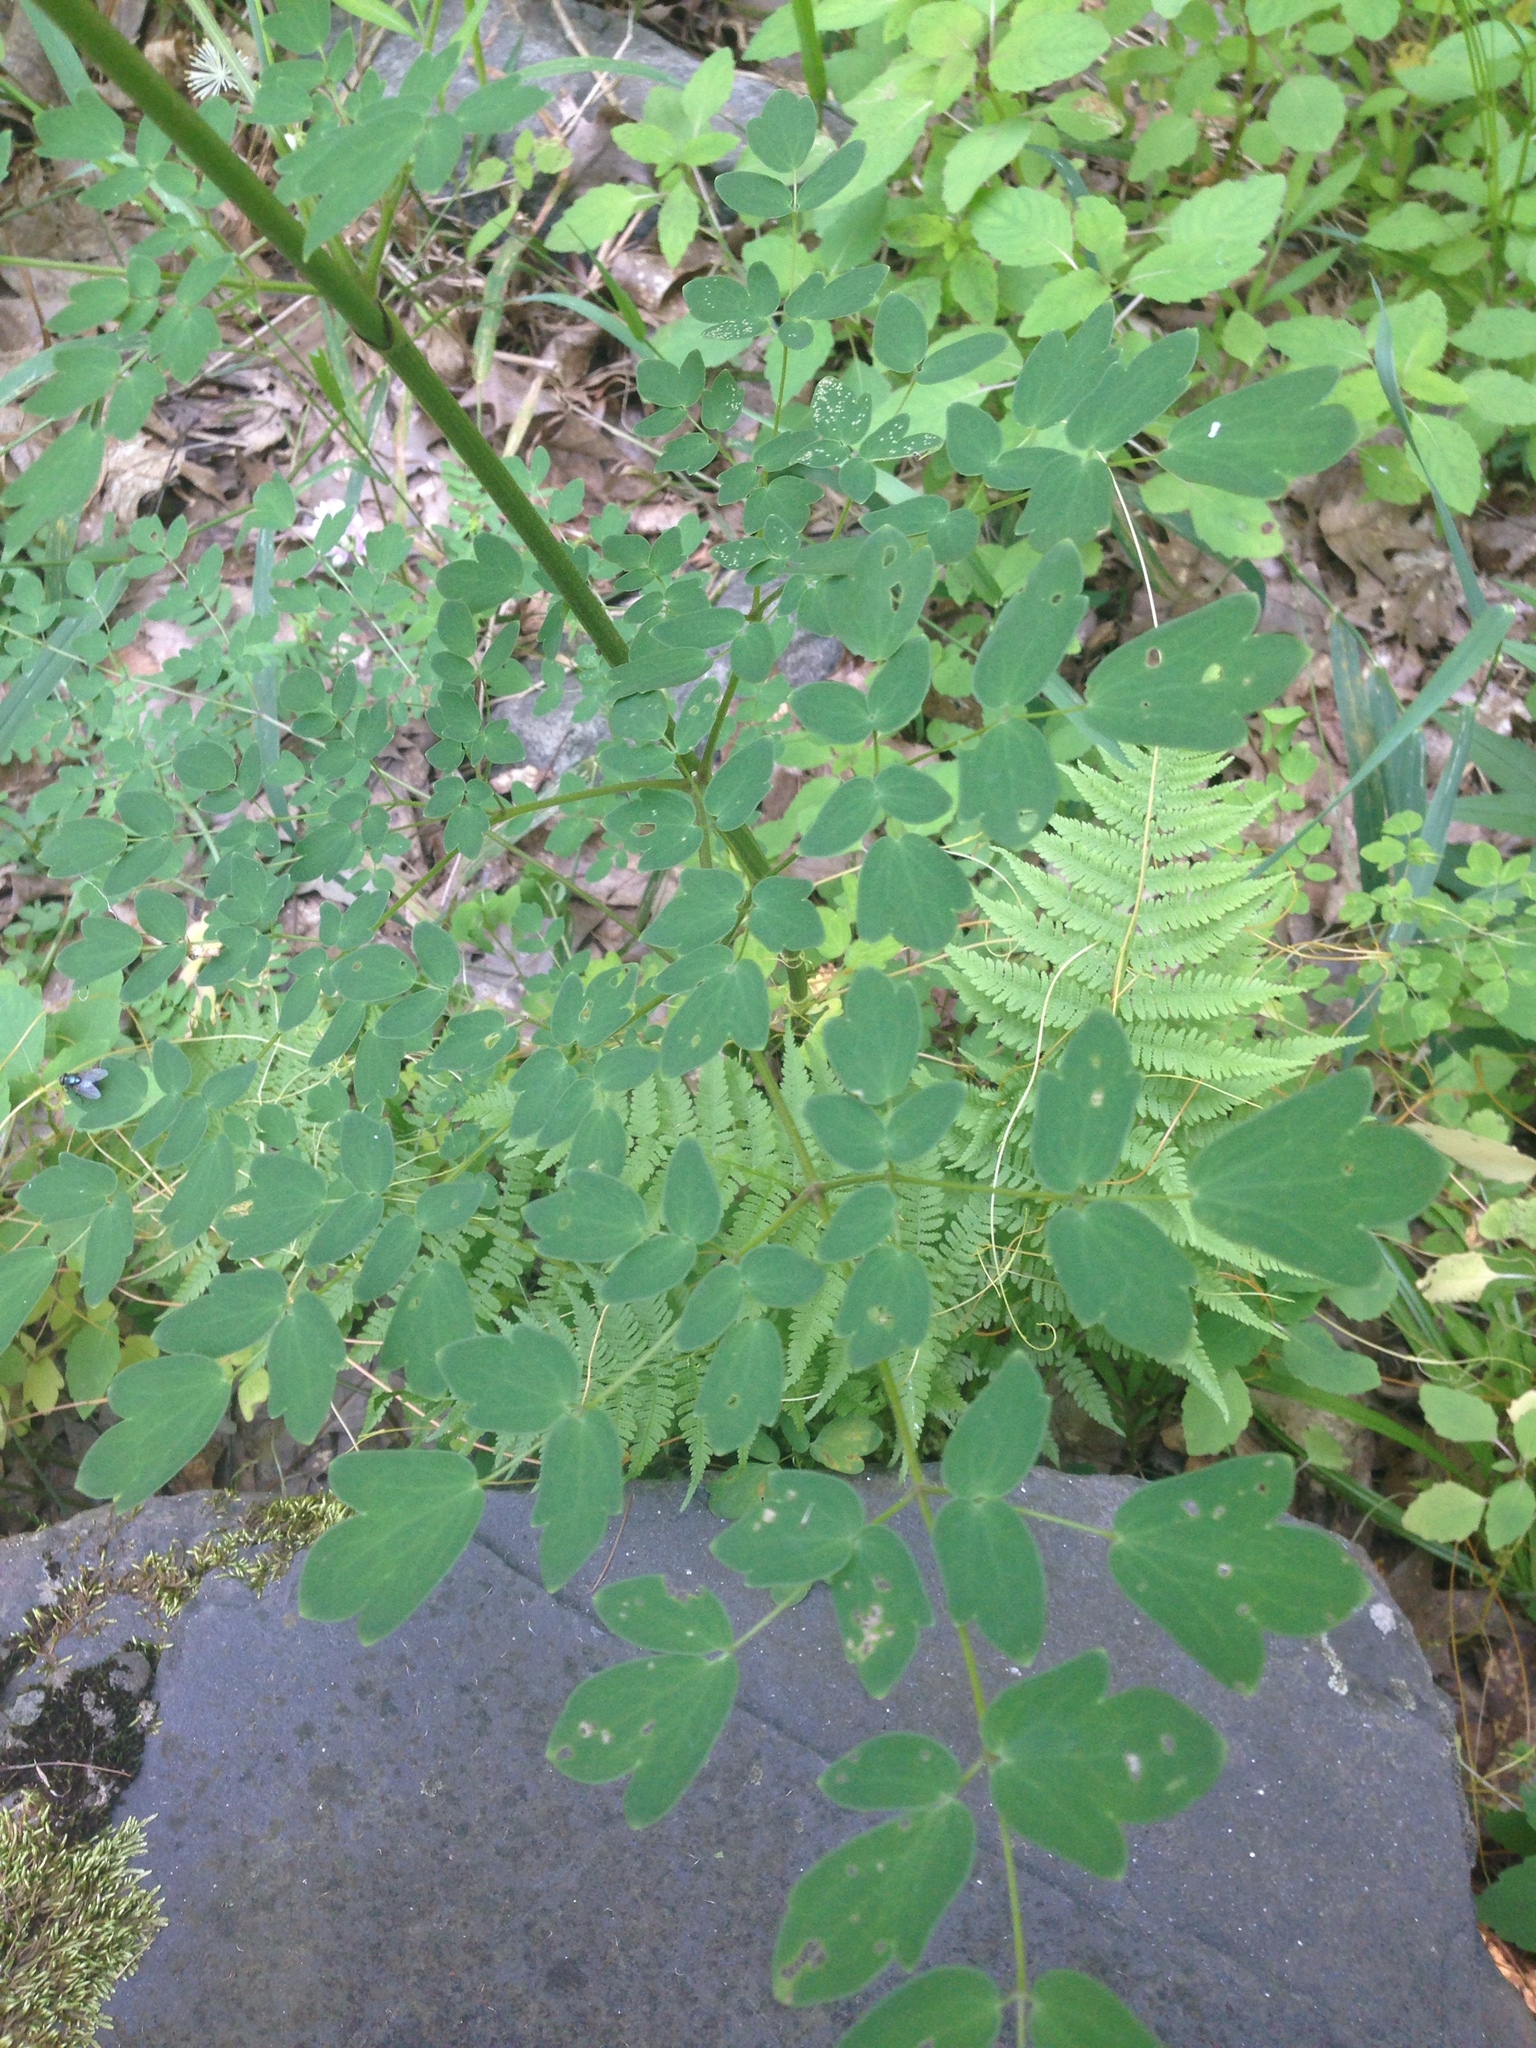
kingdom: Plantae
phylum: Tracheophyta
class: Magnoliopsida
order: Ranunculales
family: Ranunculaceae
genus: Thalictrum
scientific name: Thalictrum pubescens
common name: King-of-the-meadow
